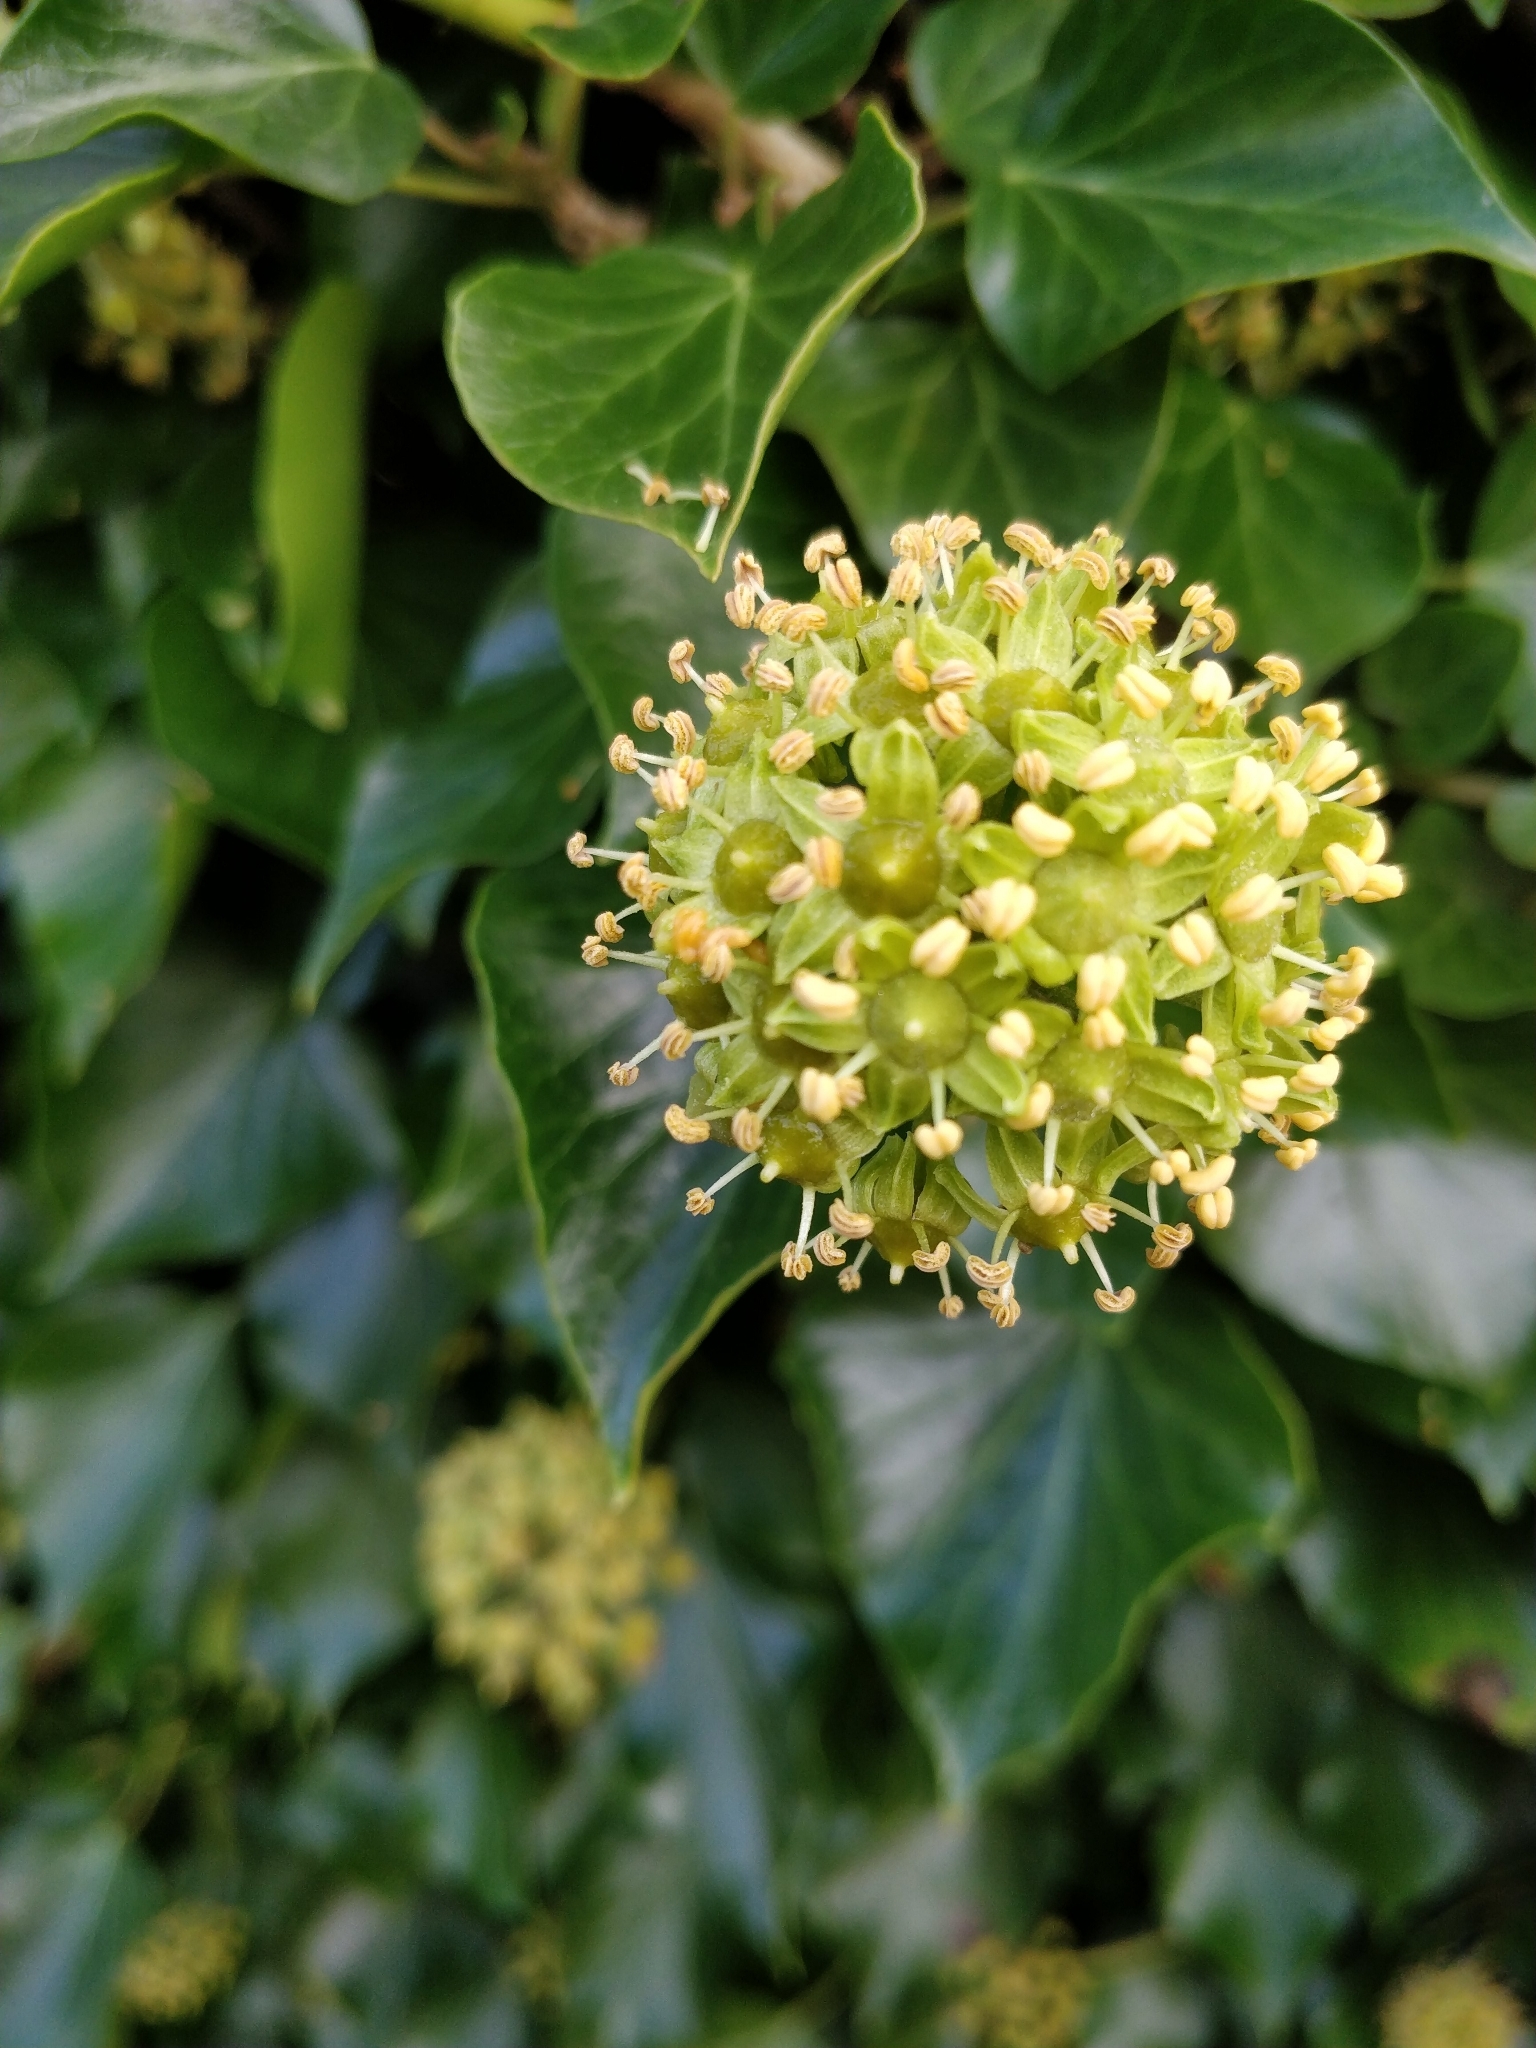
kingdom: Plantae
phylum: Tracheophyta
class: Magnoliopsida
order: Apiales
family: Araliaceae
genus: Hedera
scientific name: Hedera helix
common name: Ivy
